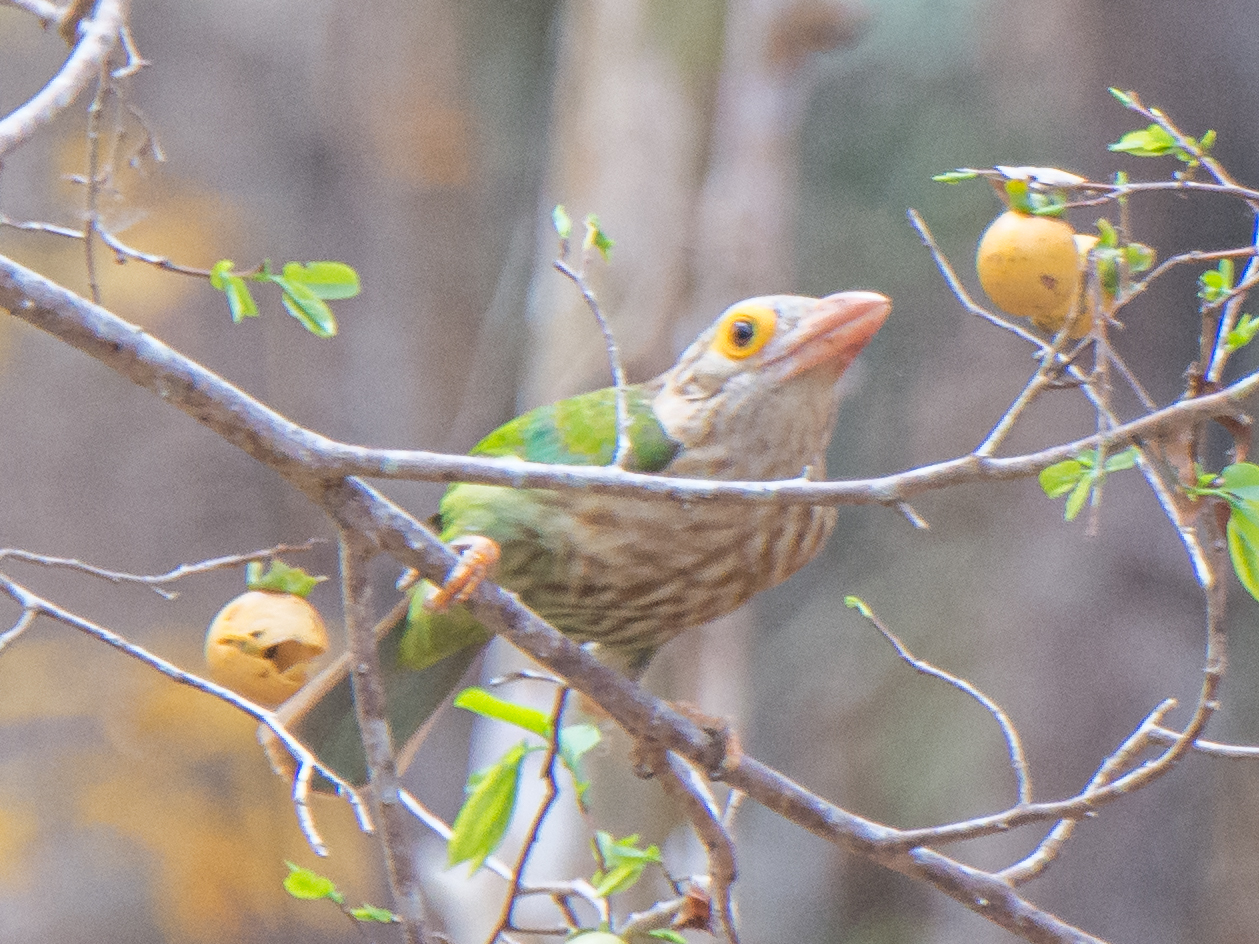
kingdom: Animalia
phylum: Chordata
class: Aves
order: Piciformes
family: Megalaimidae
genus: Psilopogon
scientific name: Psilopogon lineatus
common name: Lineated barbet
